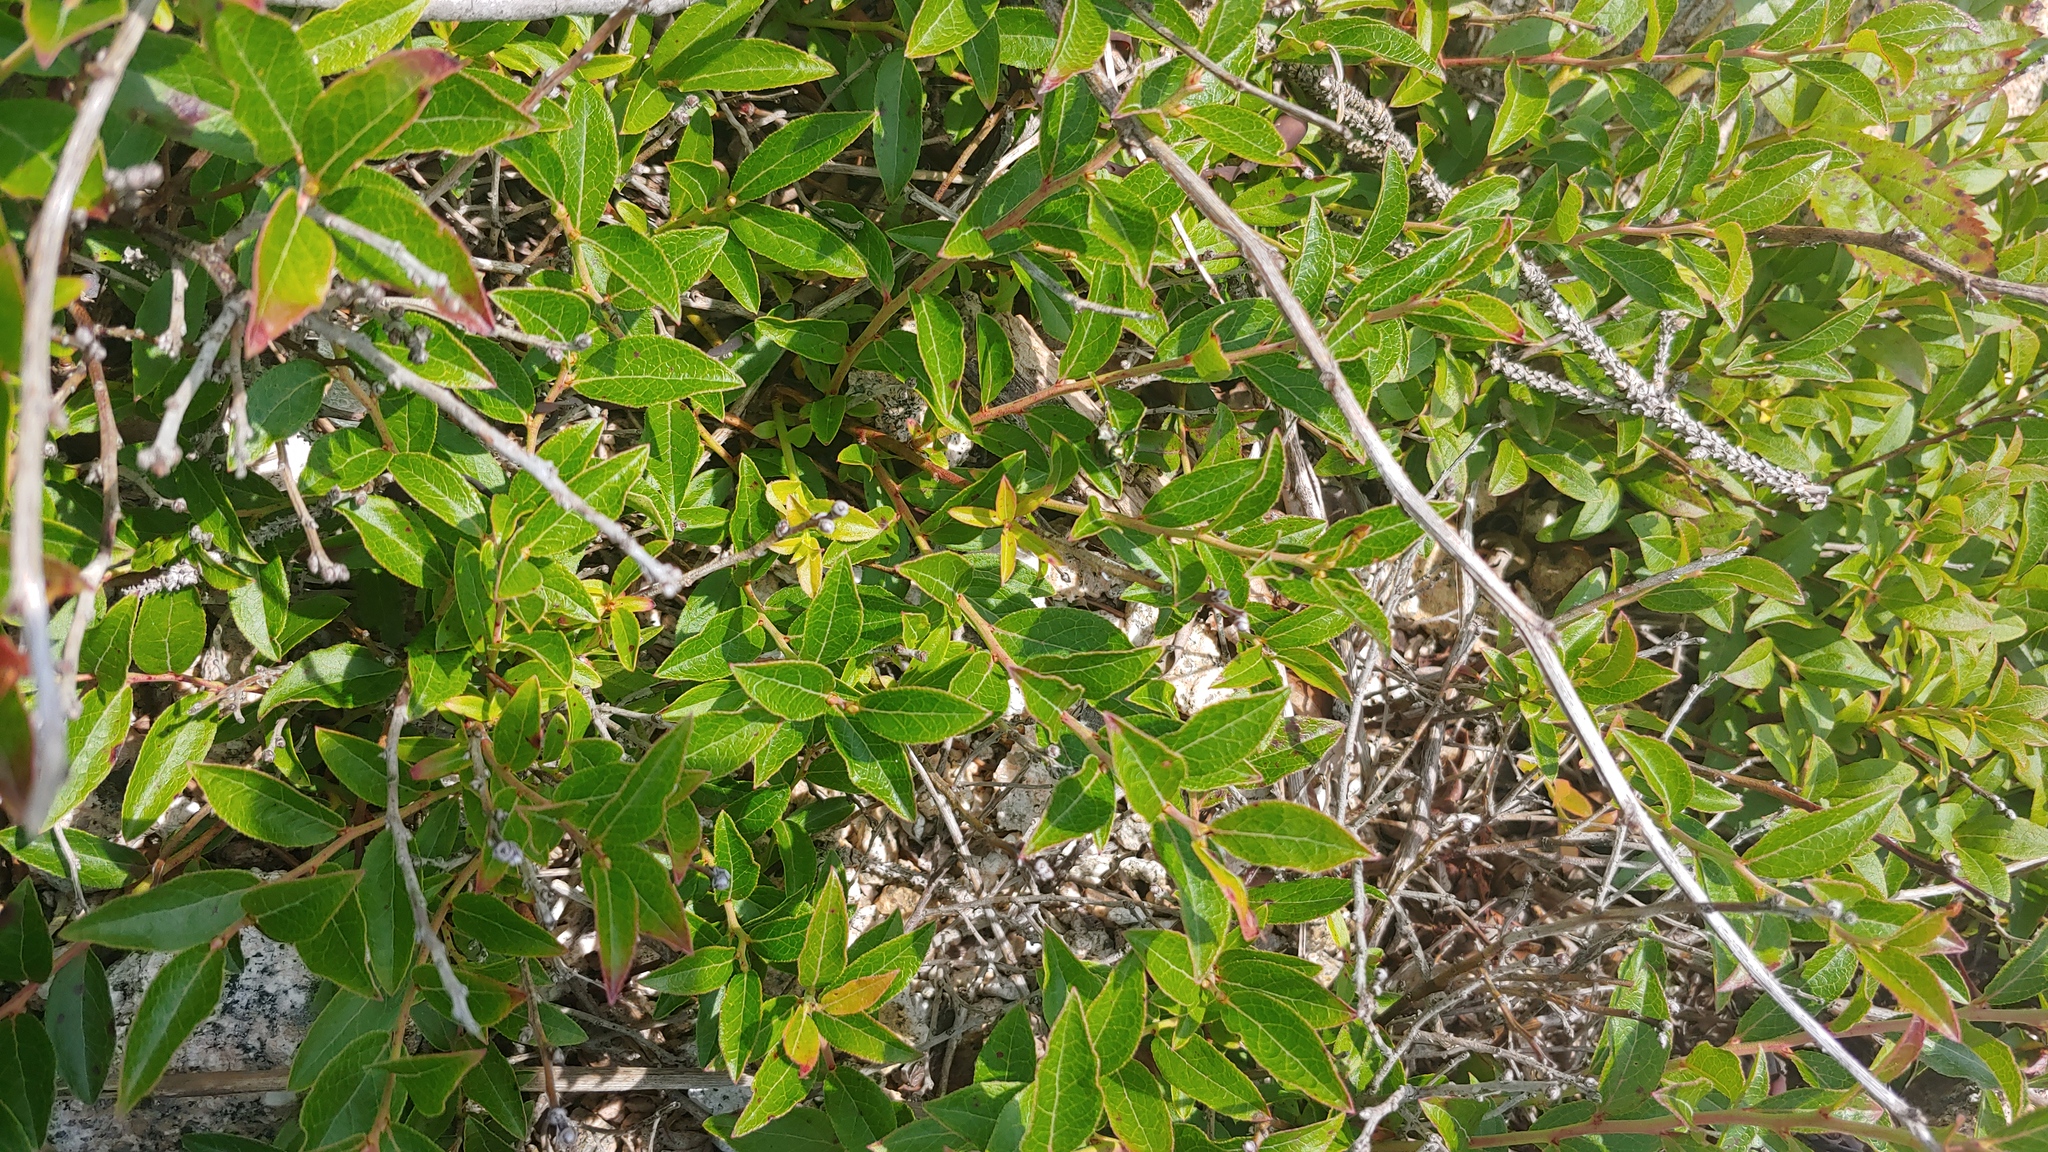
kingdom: Plantae
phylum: Tracheophyta
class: Magnoliopsida
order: Ericales
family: Ericaceae
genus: Vaccinium
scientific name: Vaccinium angustifolium
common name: Early lowbush blueberry
